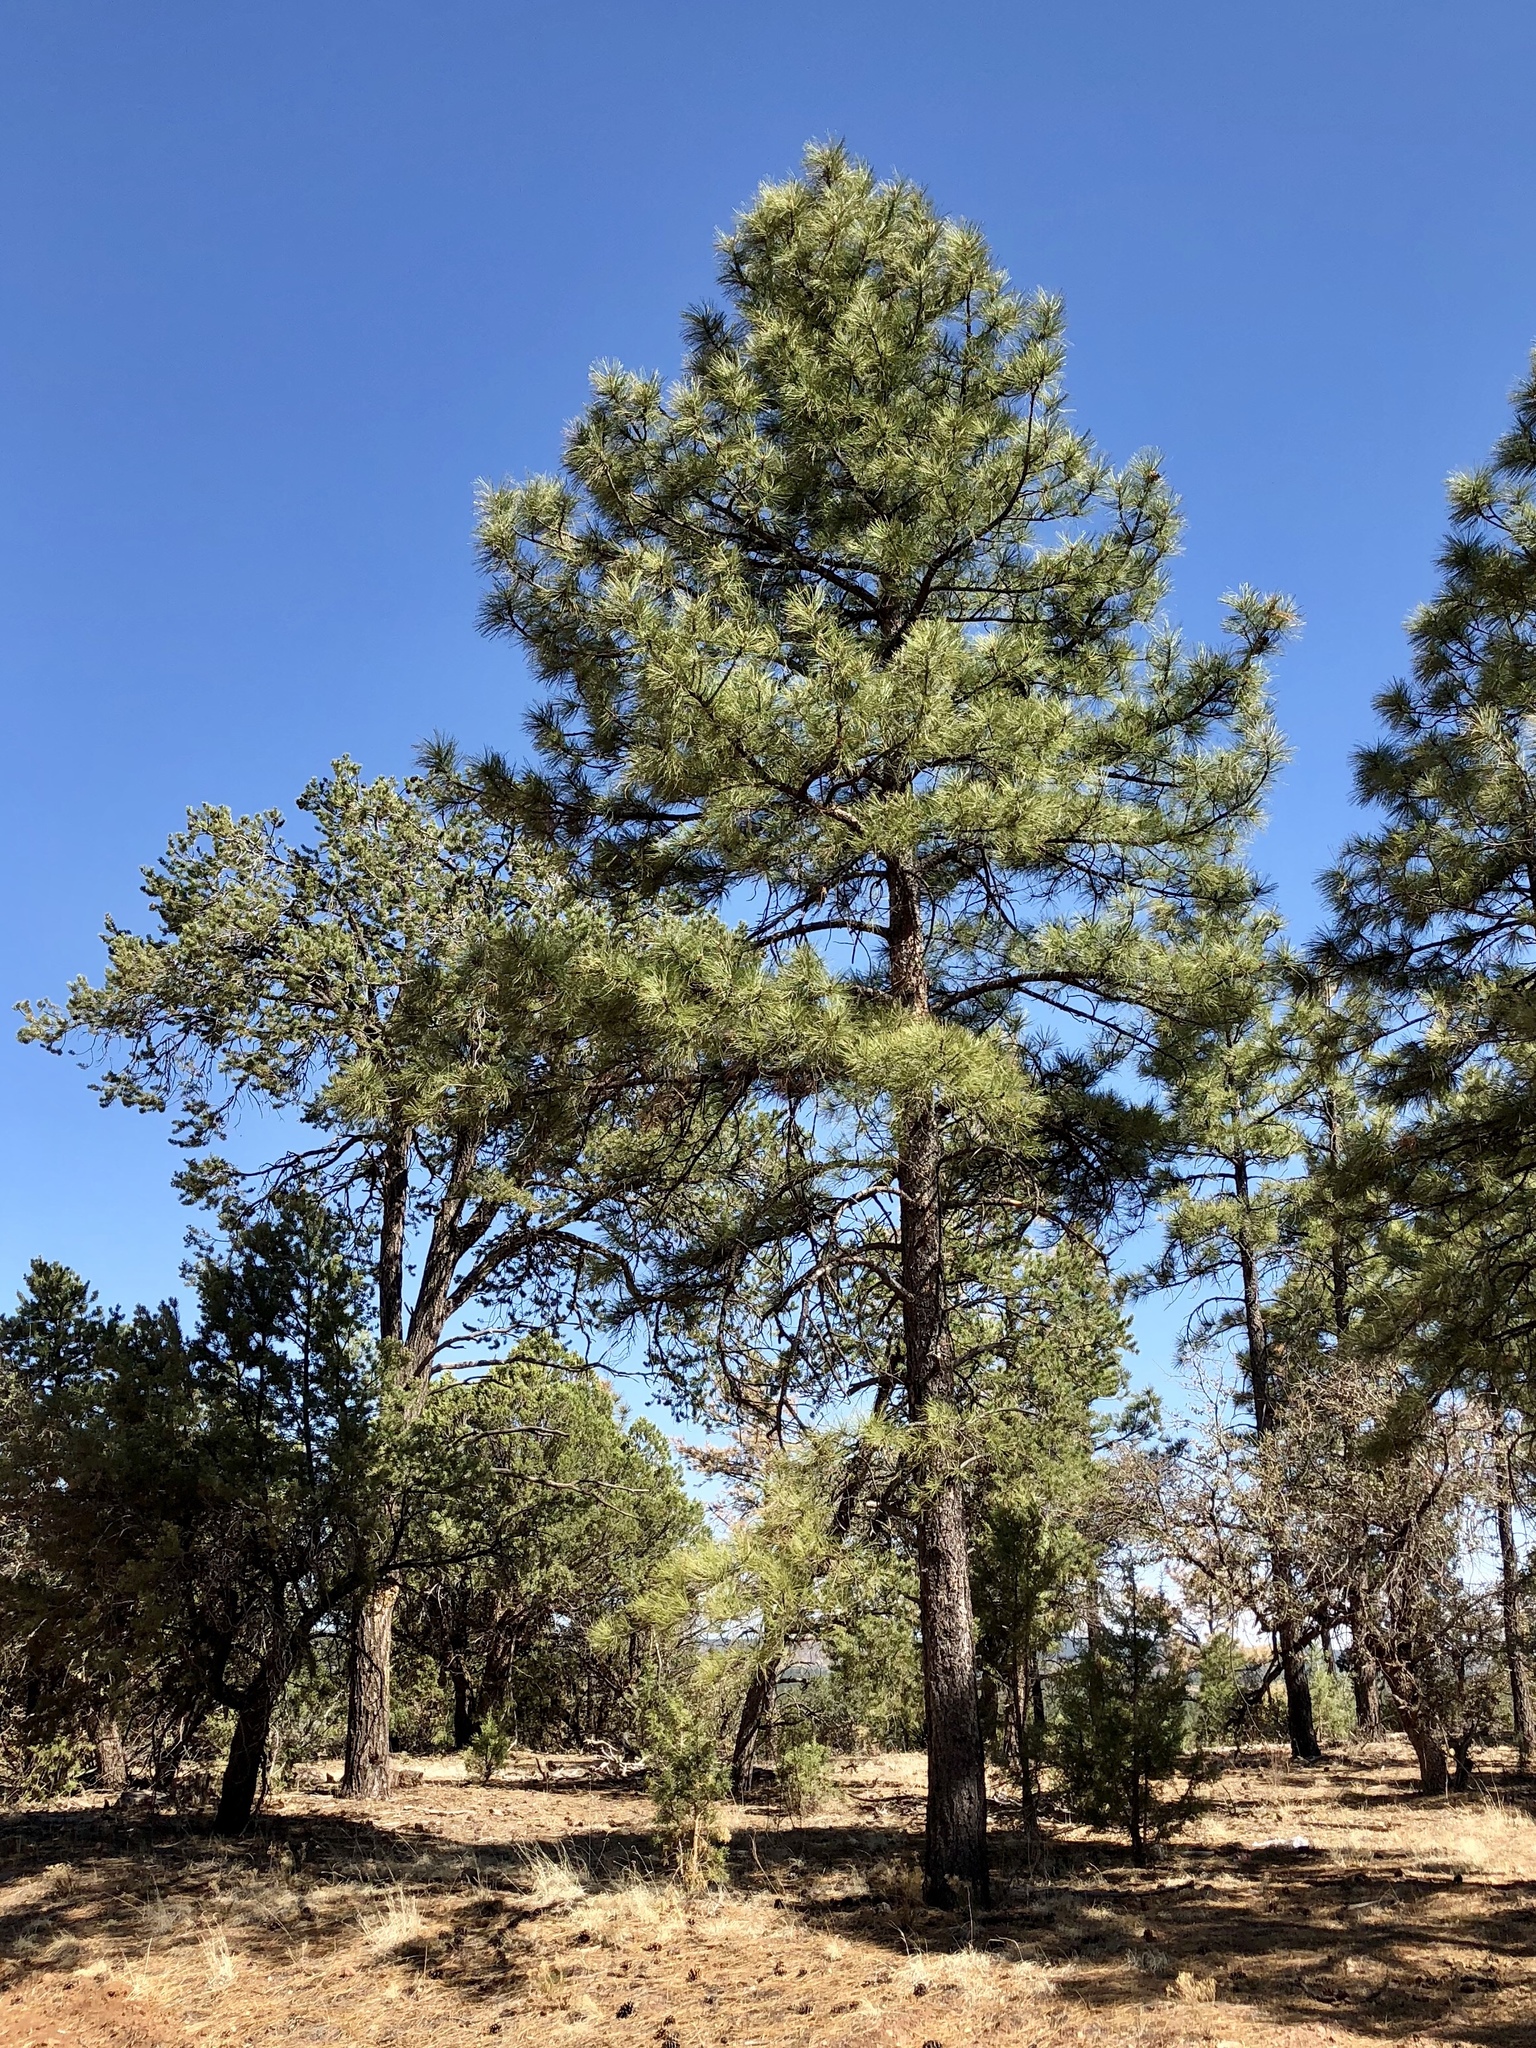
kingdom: Plantae
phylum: Tracheophyta
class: Pinopsida
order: Pinales
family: Pinaceae
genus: Pinus
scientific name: Pinus ponderosa
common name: Western yellow-pine
